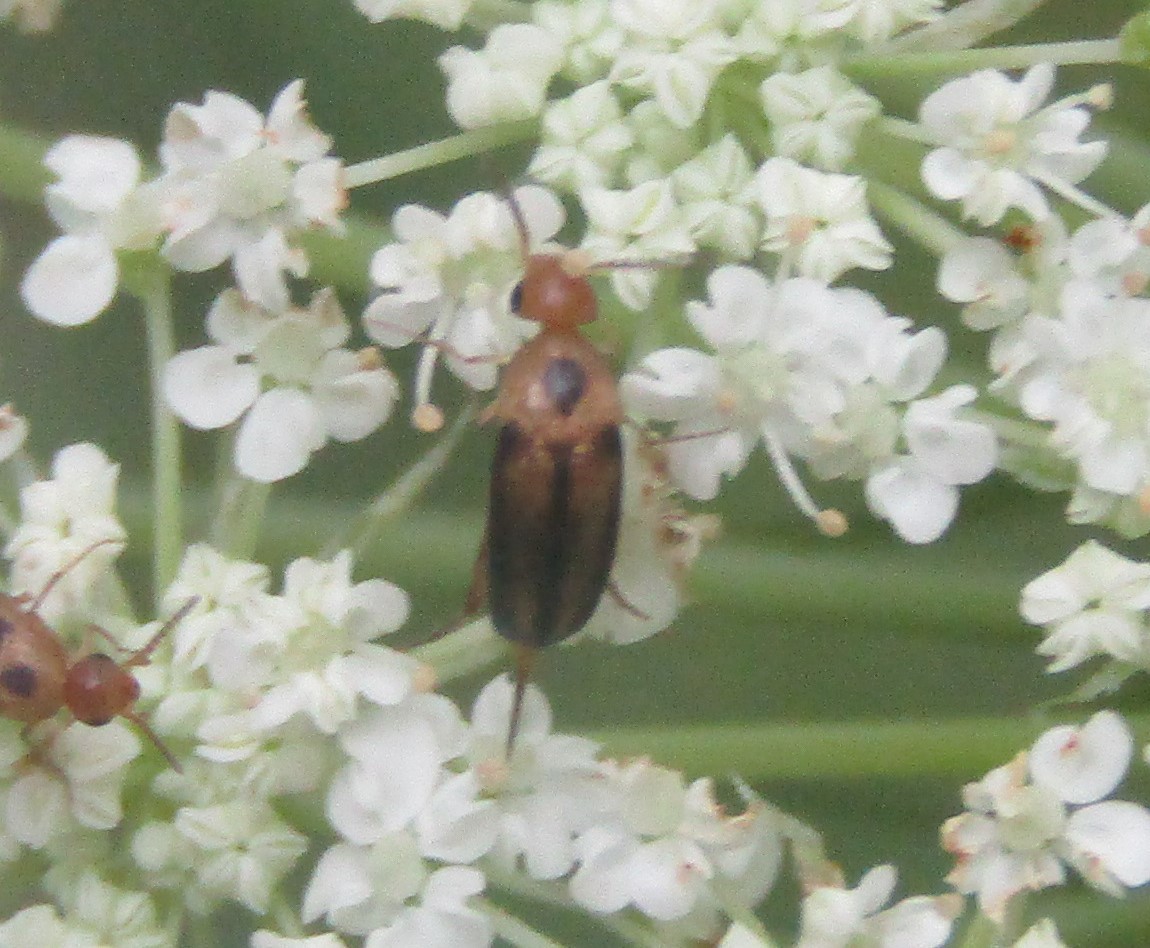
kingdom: Animalia
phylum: Arthropoda
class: Insecta
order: Coleoptera
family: Mordellidae
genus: Mordellistena
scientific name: Mordellistena limbalis
